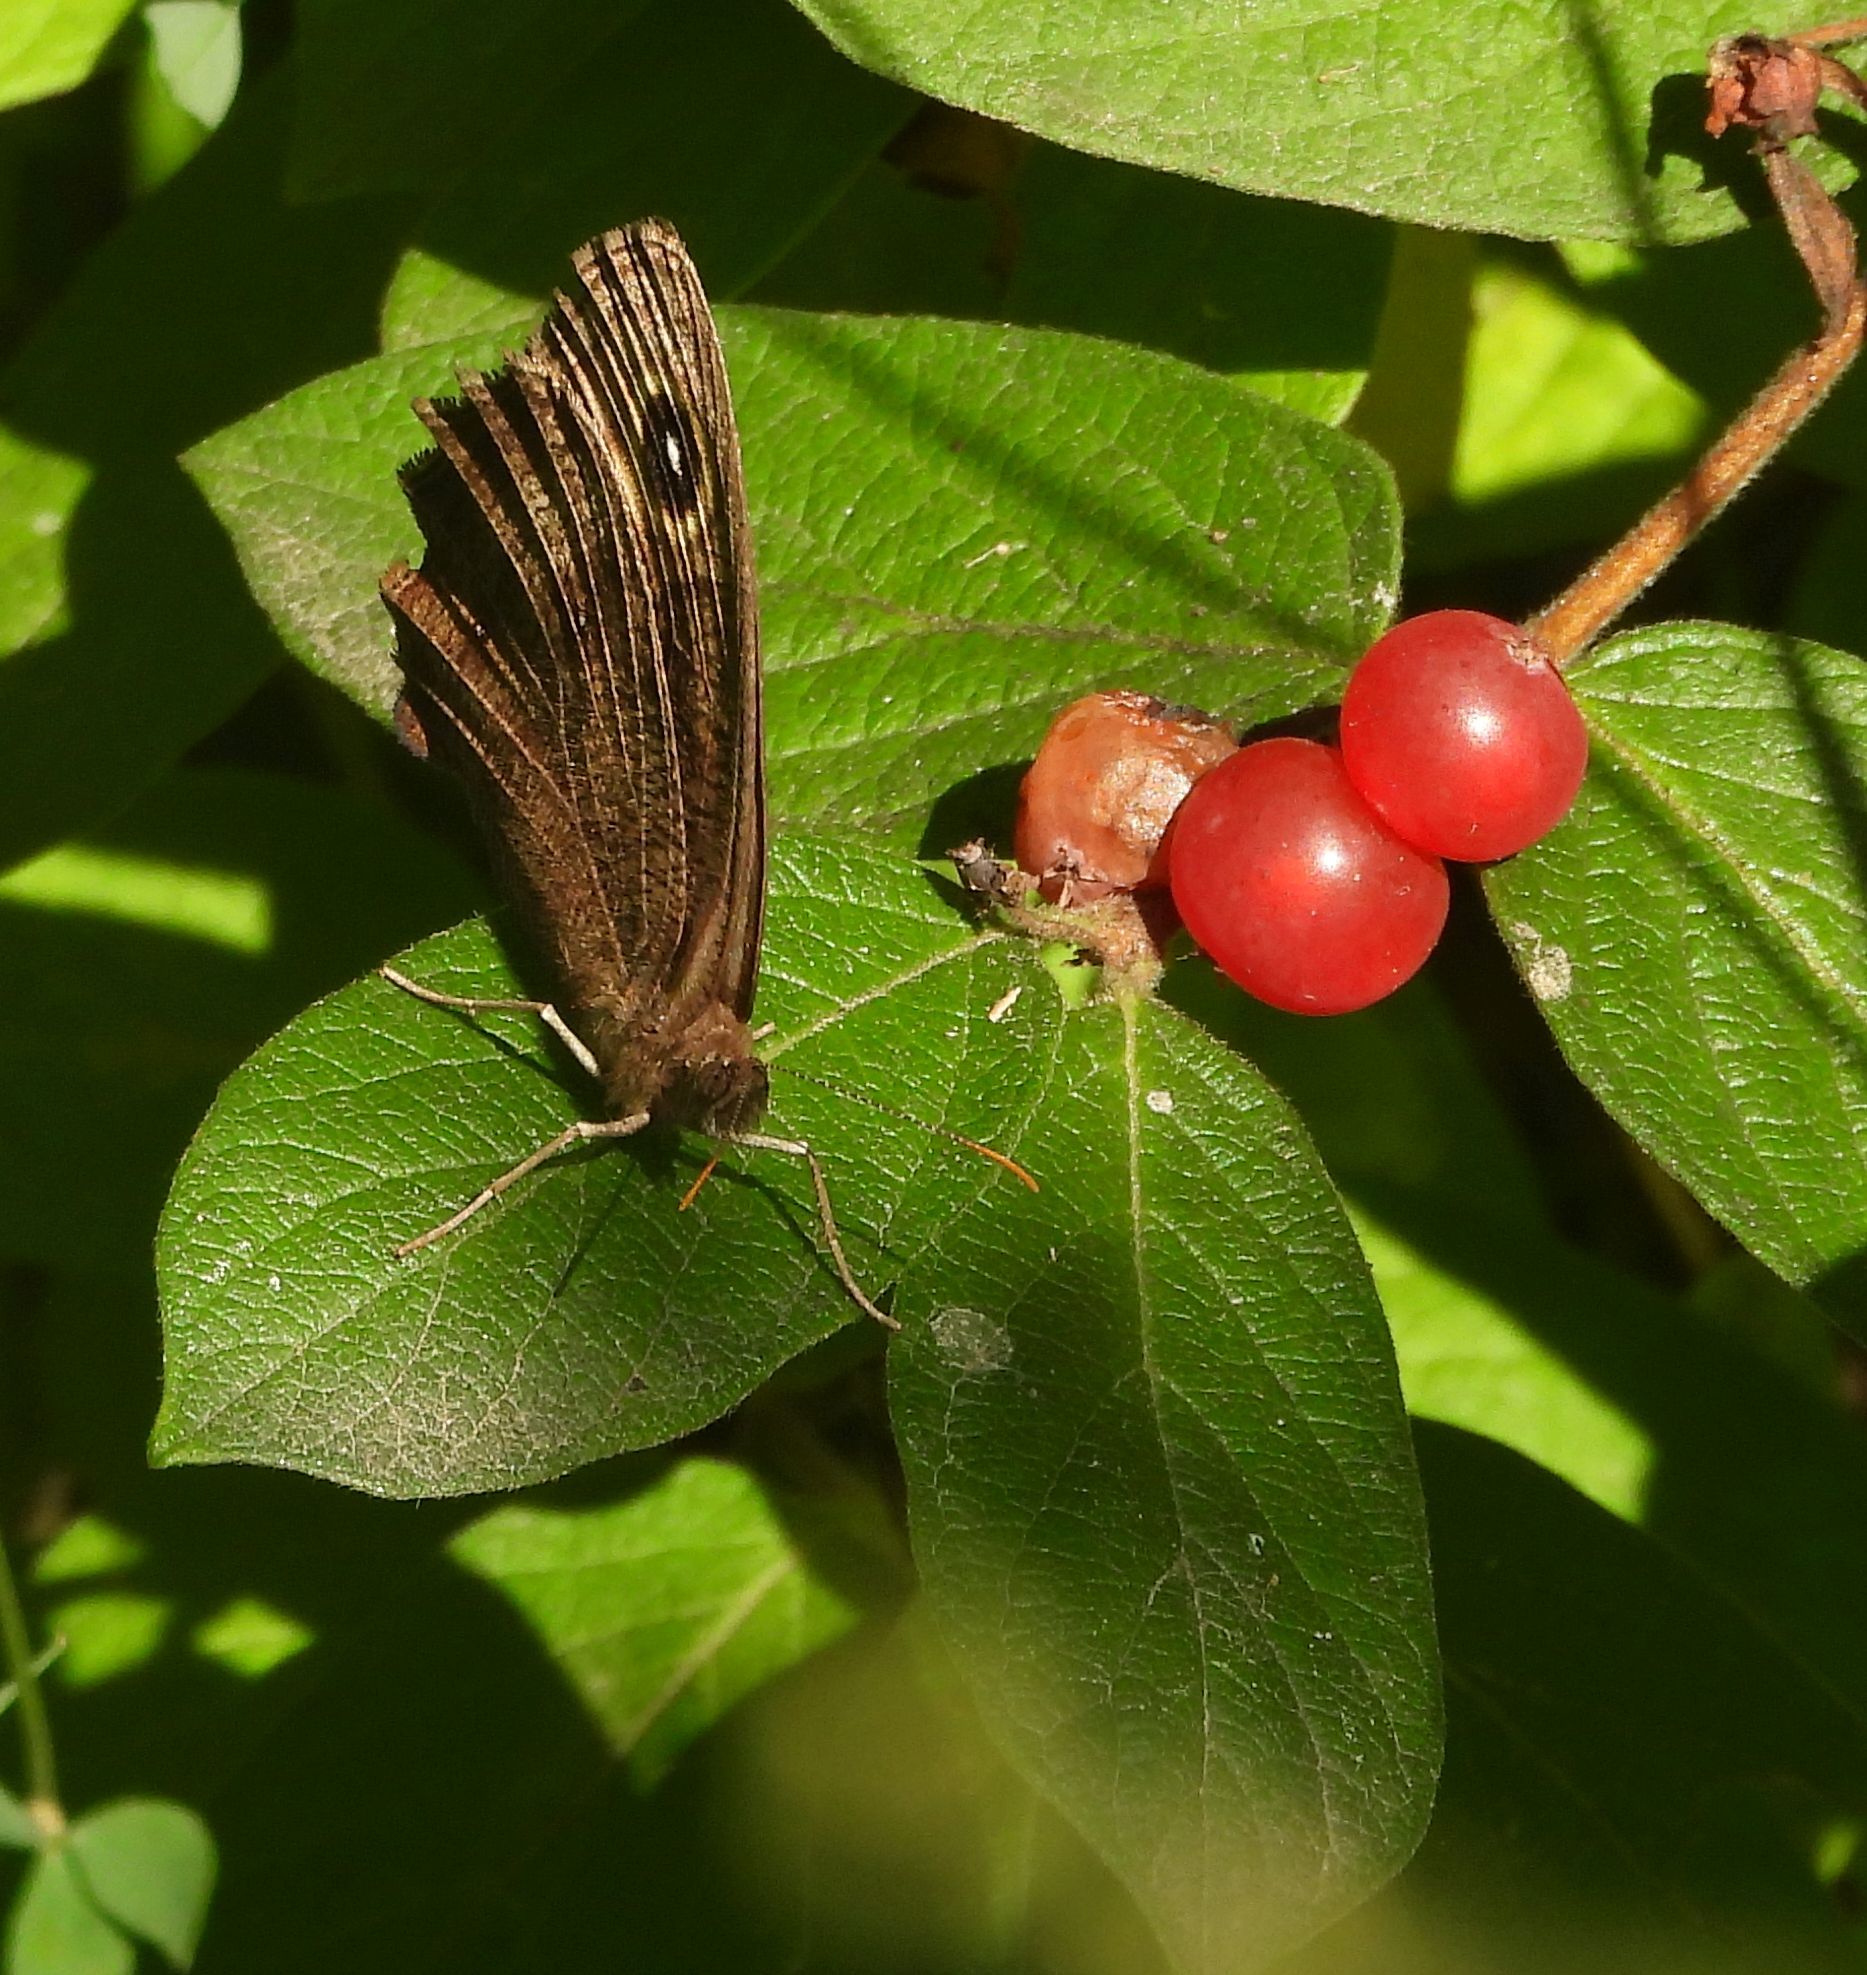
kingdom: Animalia
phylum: Arthropoda
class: Insecta
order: Lepidoptera
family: Nymphalidae
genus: Cercyonis
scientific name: Cercyonis pegala
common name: Common wood-nymph
